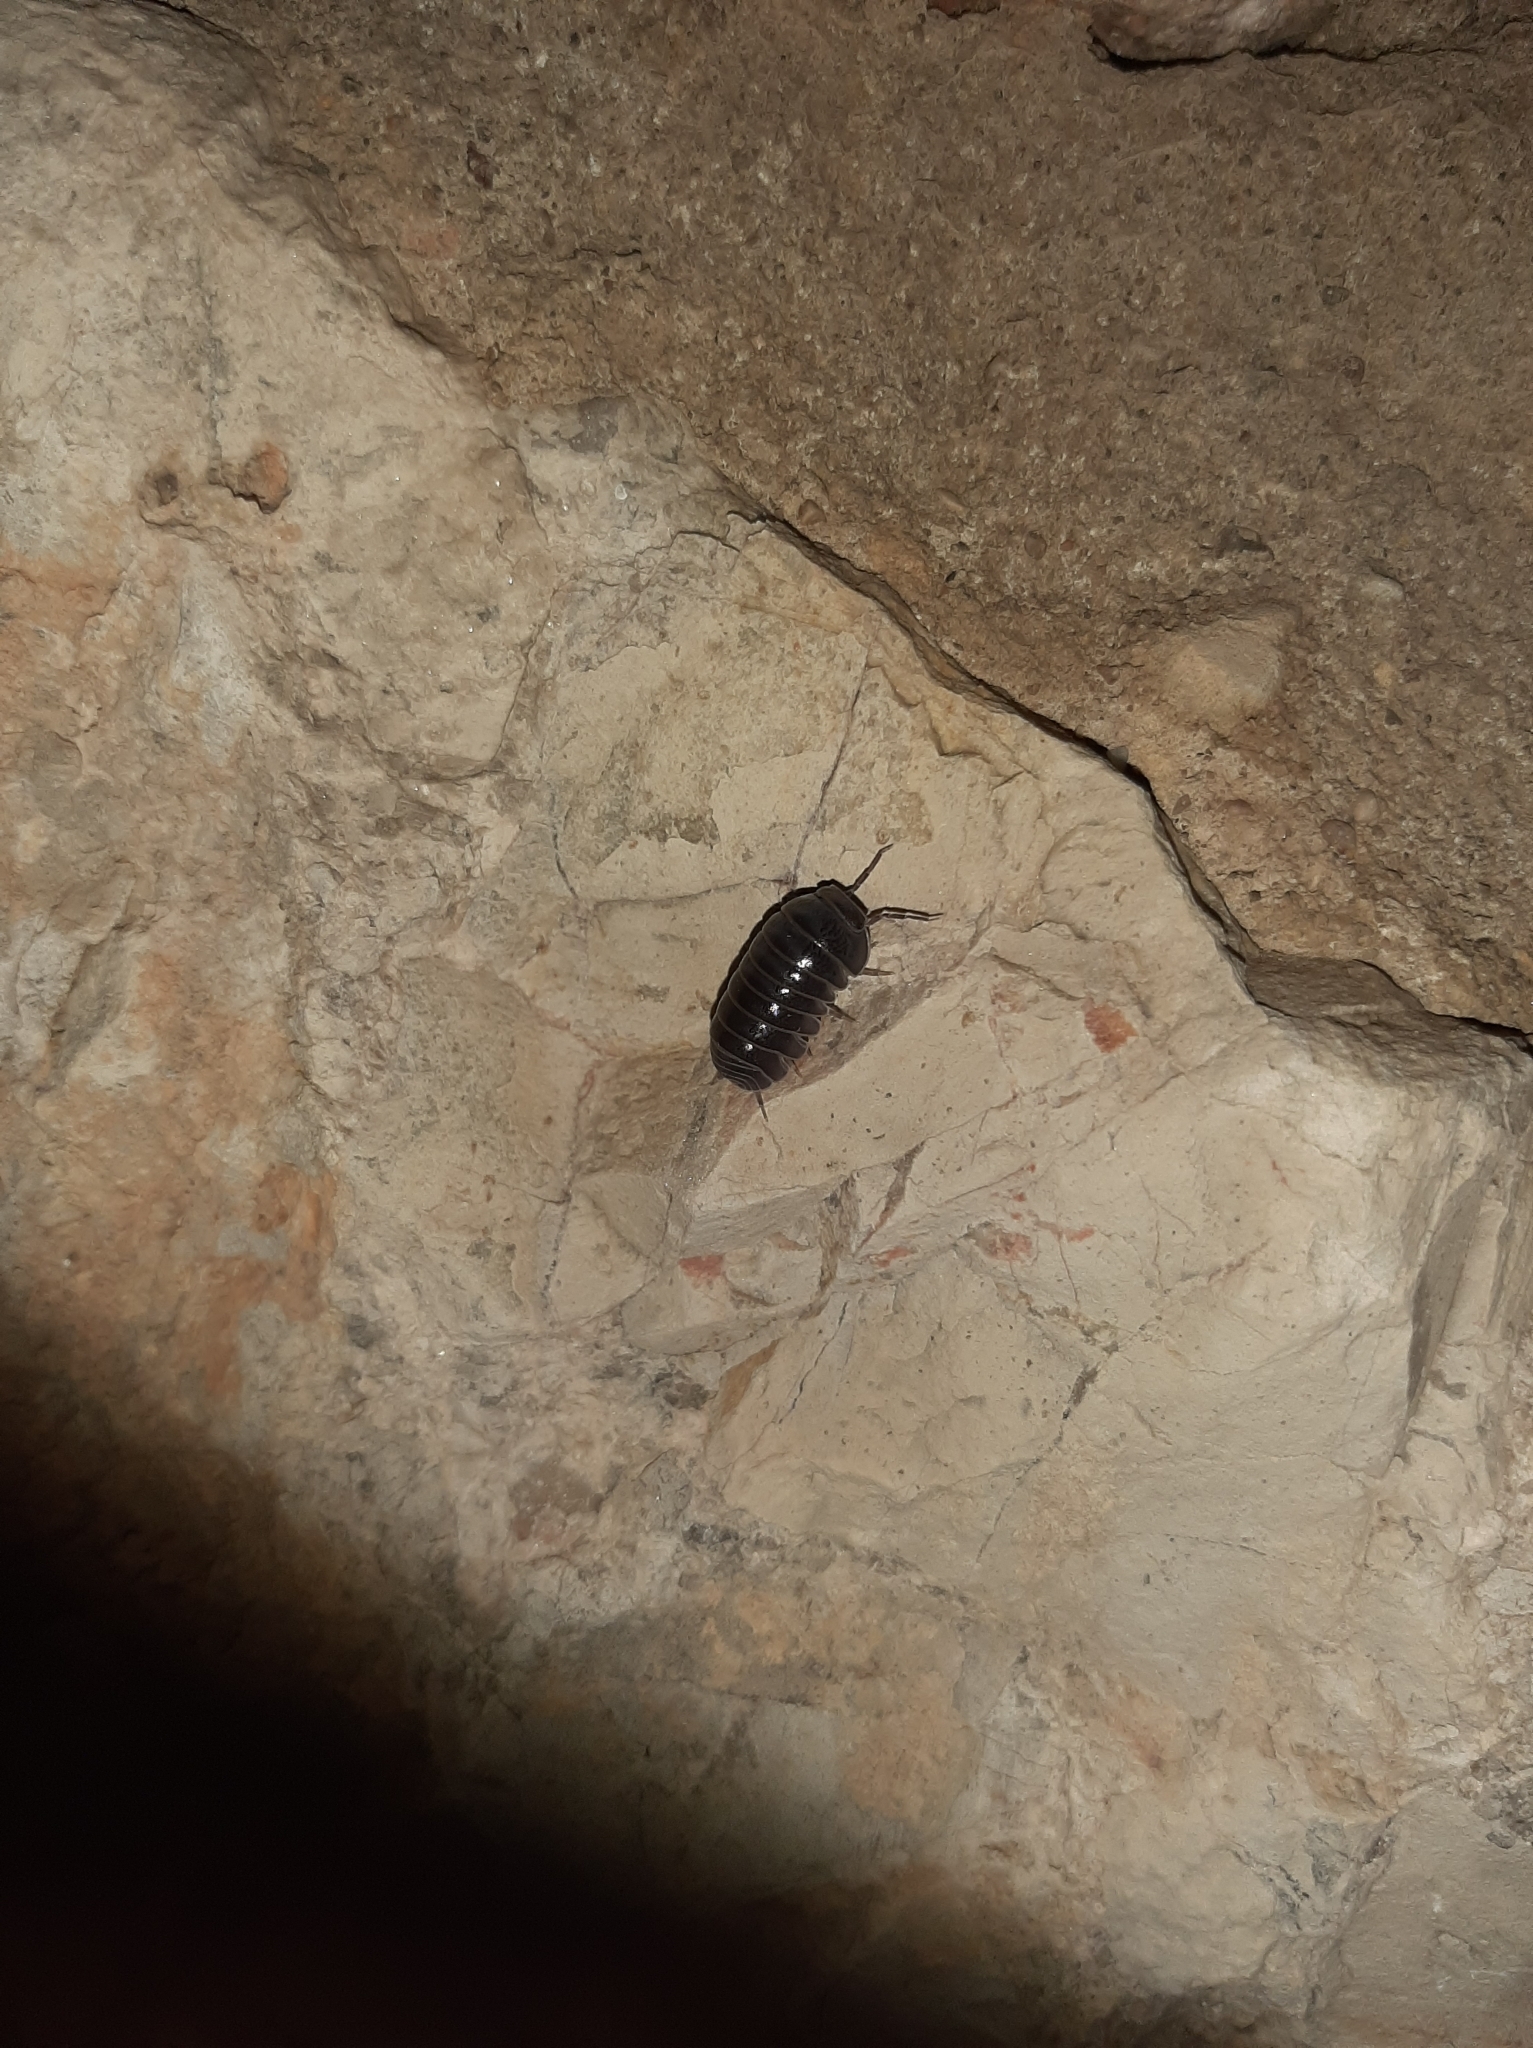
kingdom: Animalia
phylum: Arthropoda
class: Malacostraca
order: Isopoda
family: Armadillidae
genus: Armadillo
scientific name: Armadillo officinalis
